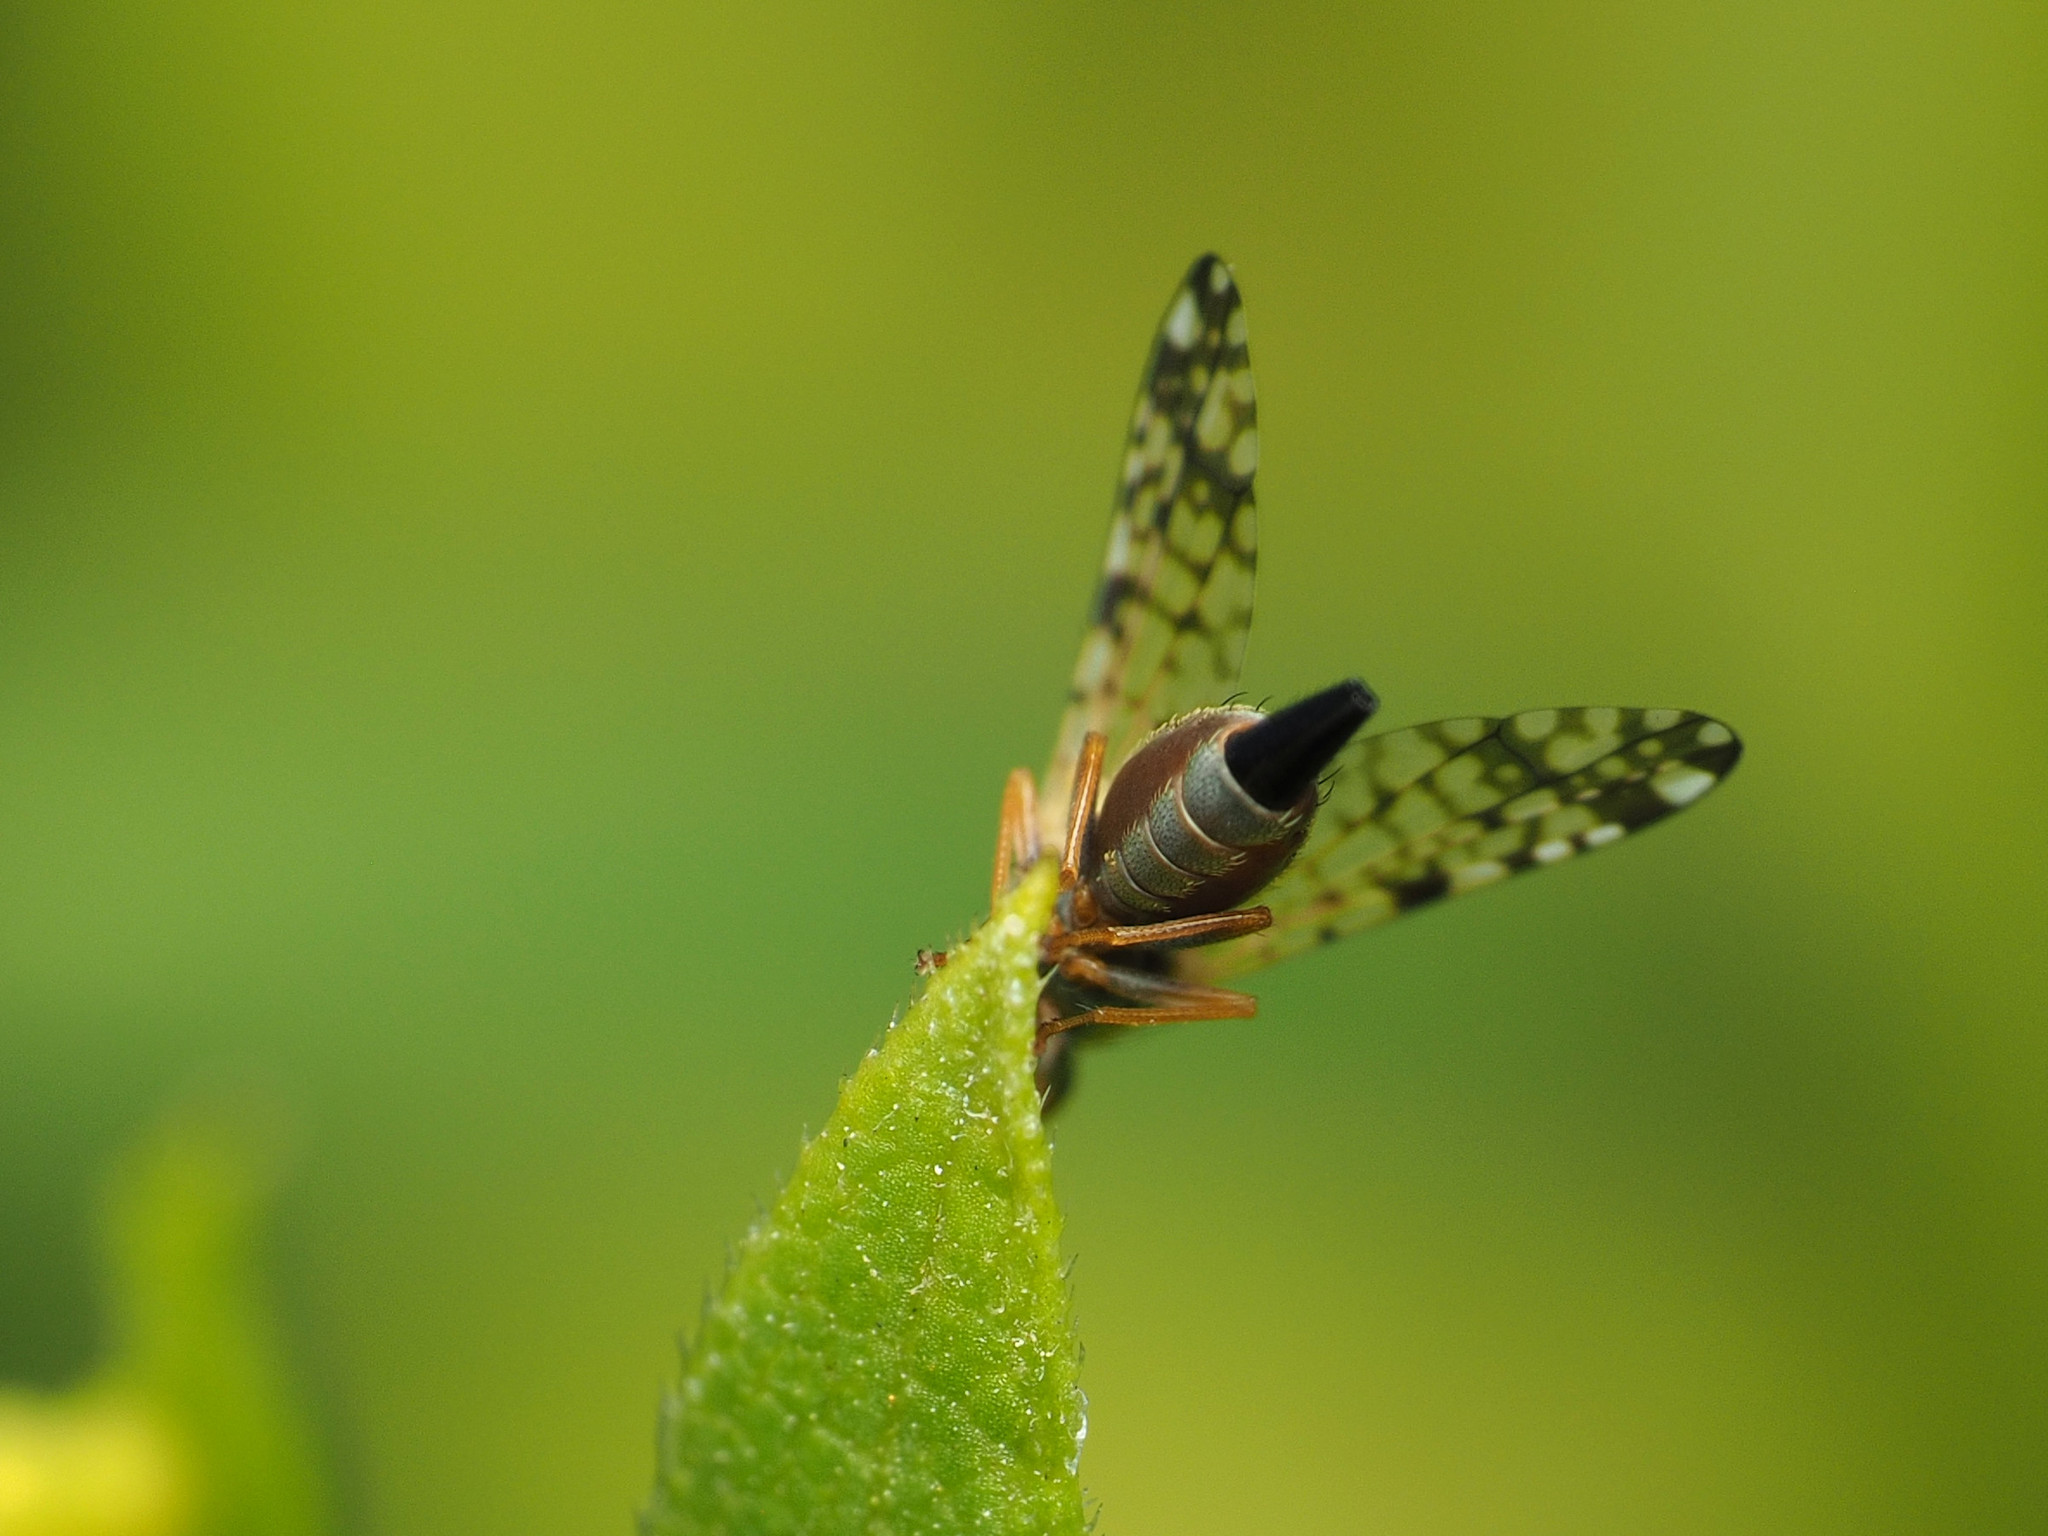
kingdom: Animalia
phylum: Arthropoda
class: Insecta
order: Diptera
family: Tephritidae
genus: Dioxyna
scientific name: Dioxyna picciola
